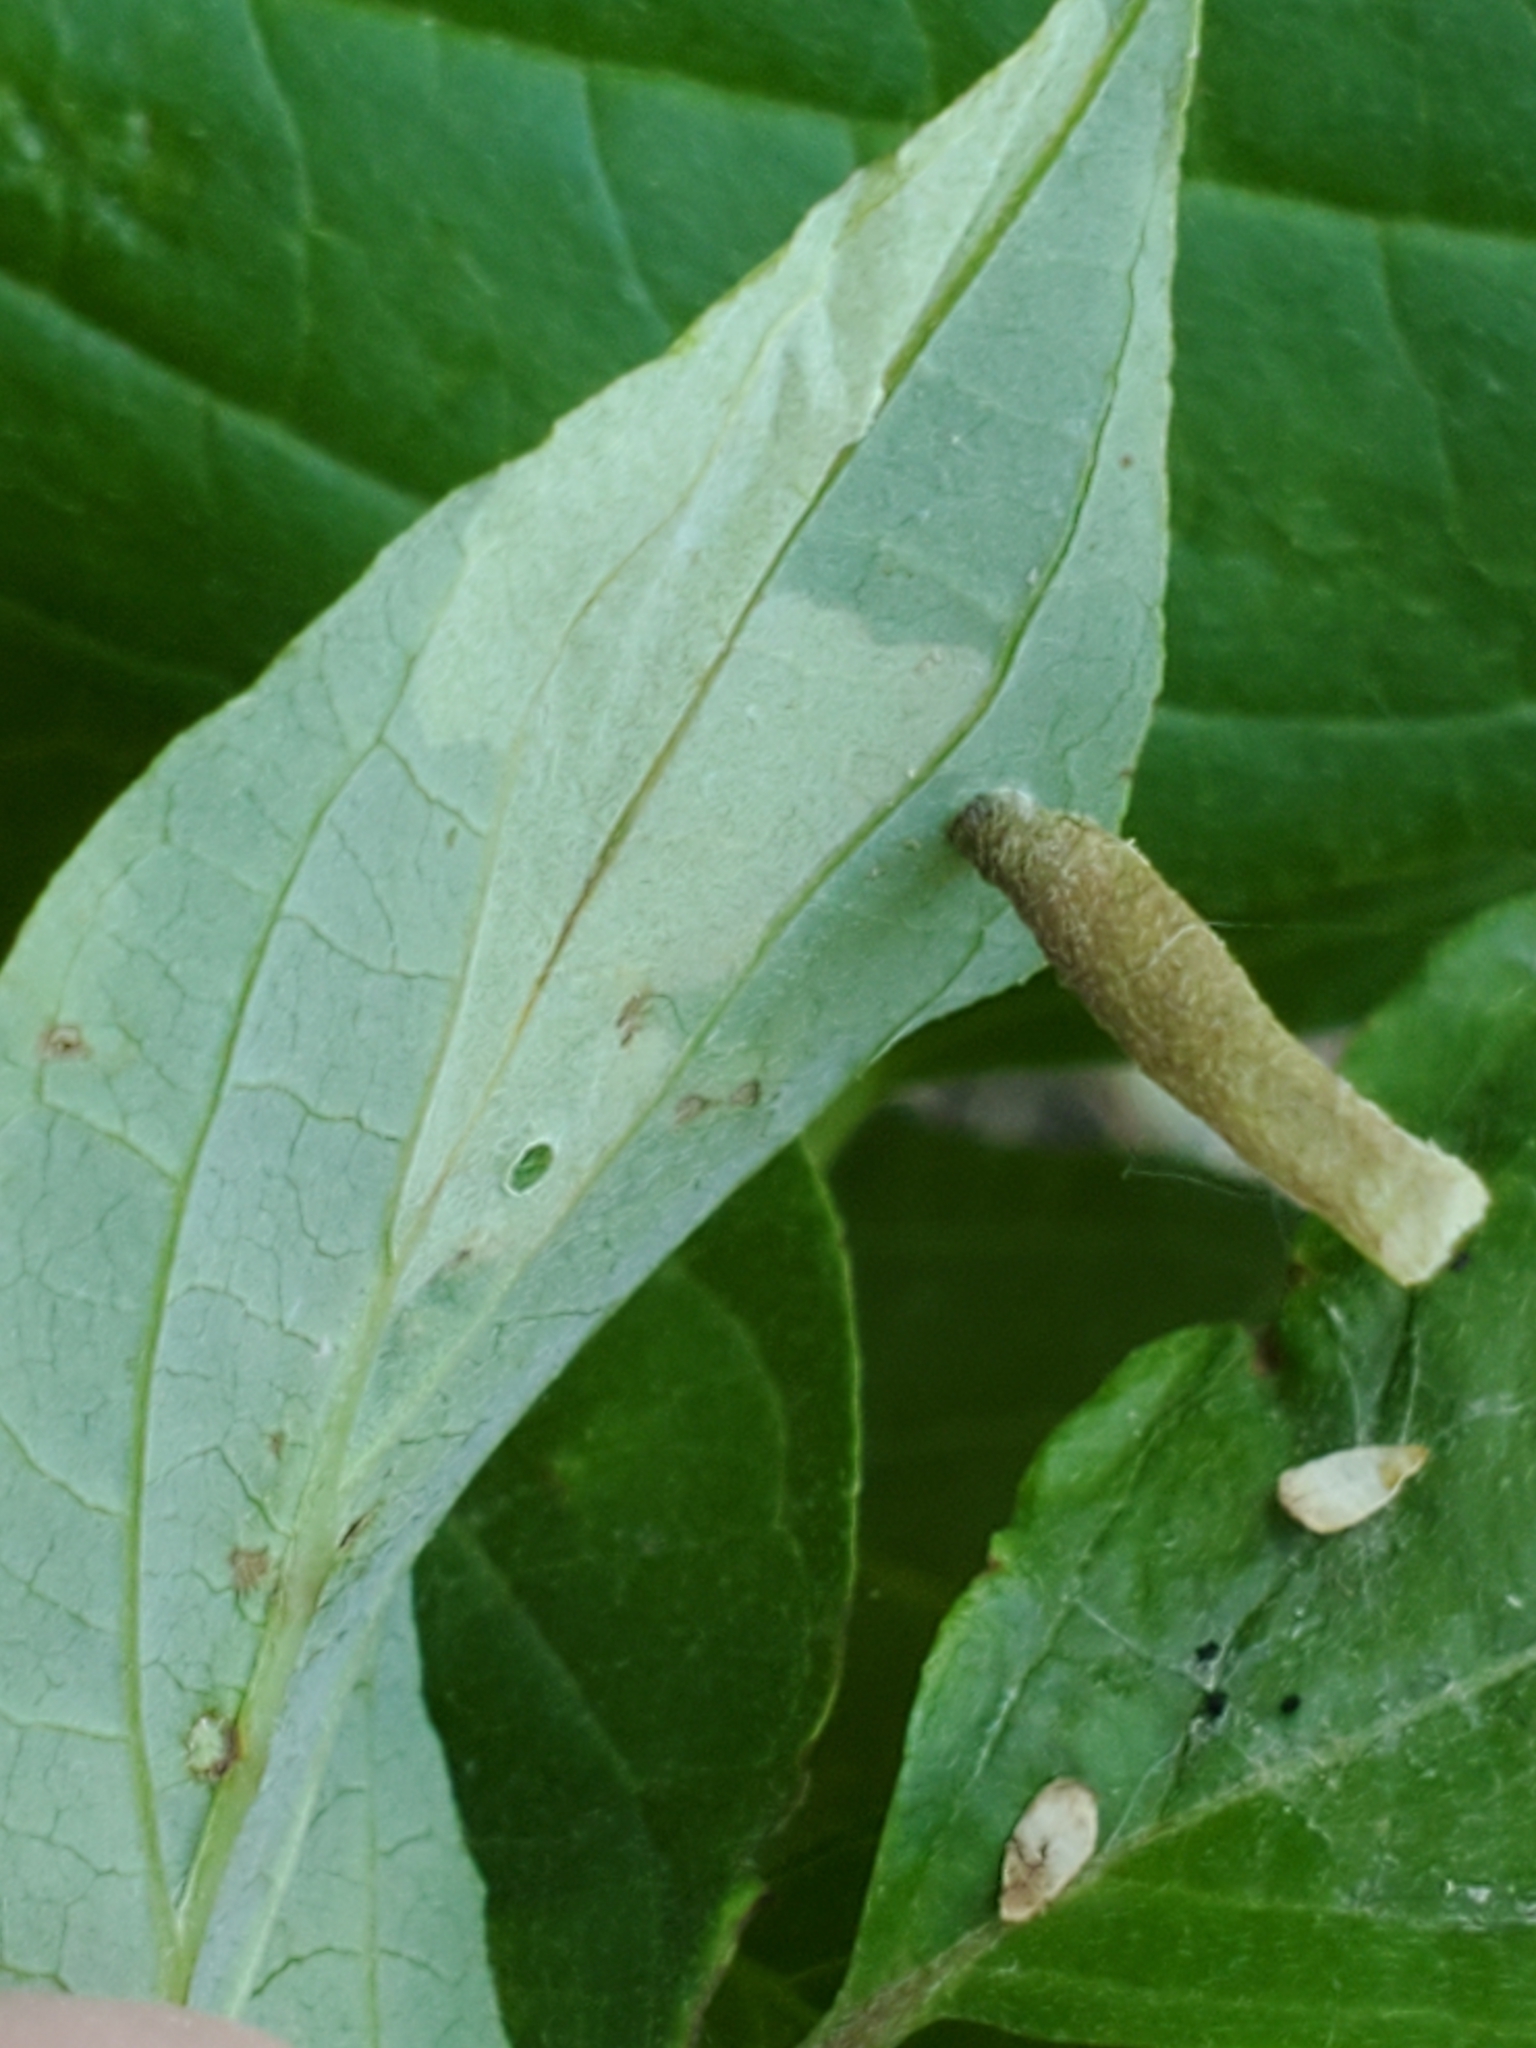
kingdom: Animalia
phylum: Arthropoda
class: Insecta
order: Lepidoptera
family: Coleophoridae
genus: Coleophora
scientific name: Coleophora cornella
